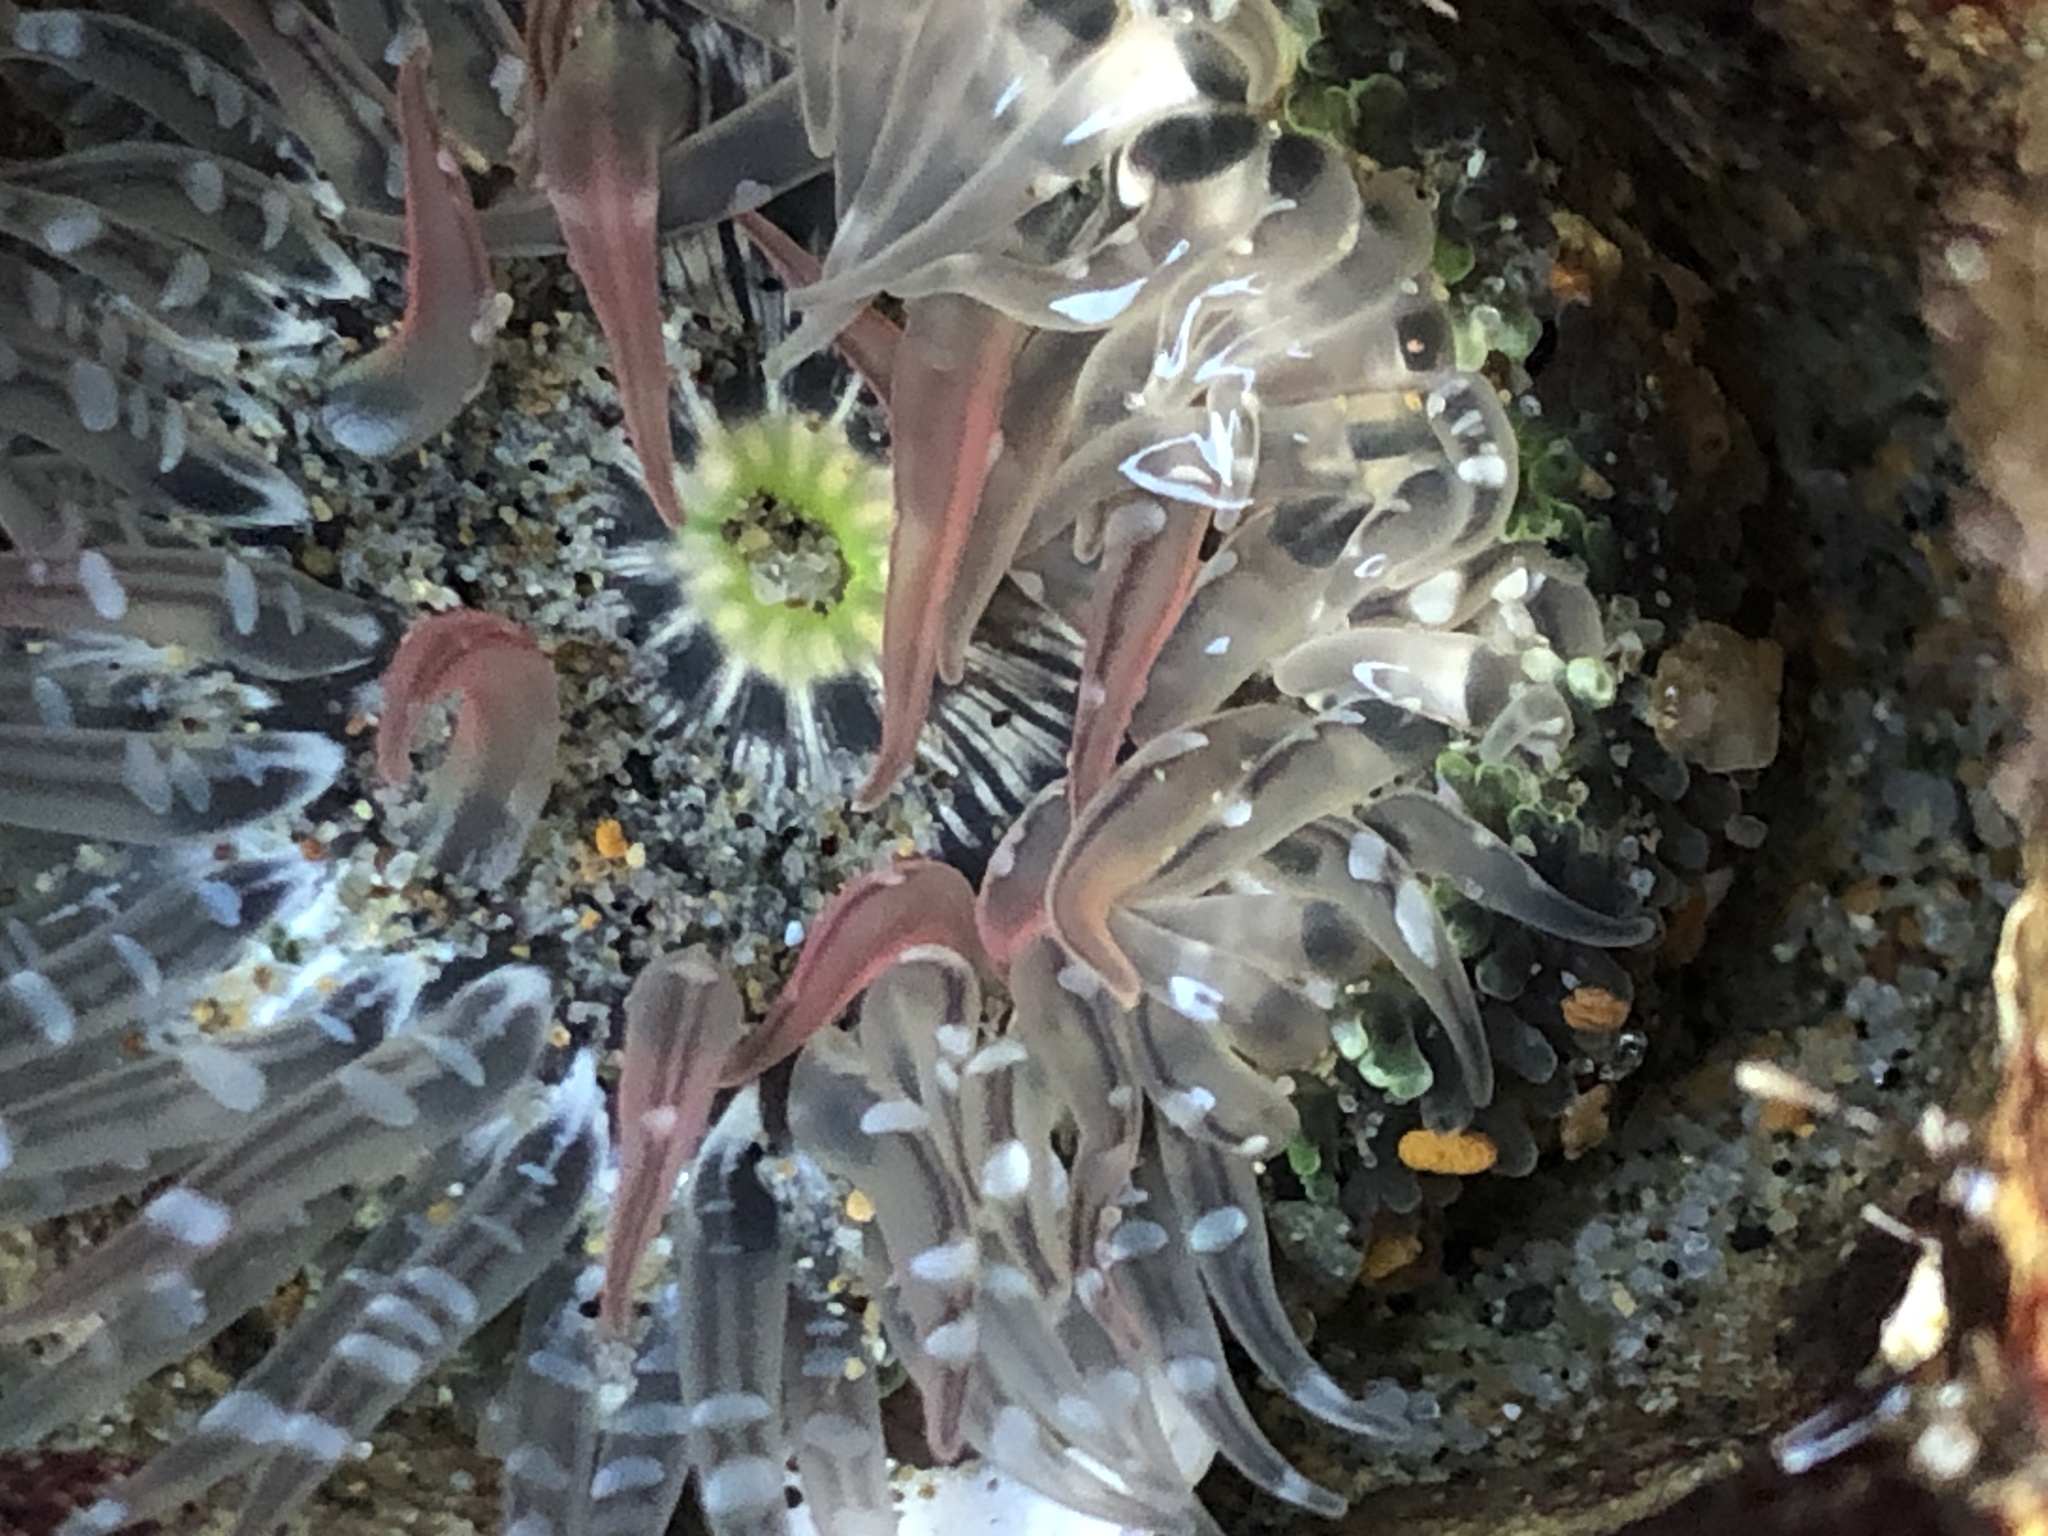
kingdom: Animalia
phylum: Cnidaria
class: Anthozoa
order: Actiniaria
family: Actiniidae
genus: Anthopleura
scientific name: Anthopleura artemisia
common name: Buried sea anemone
